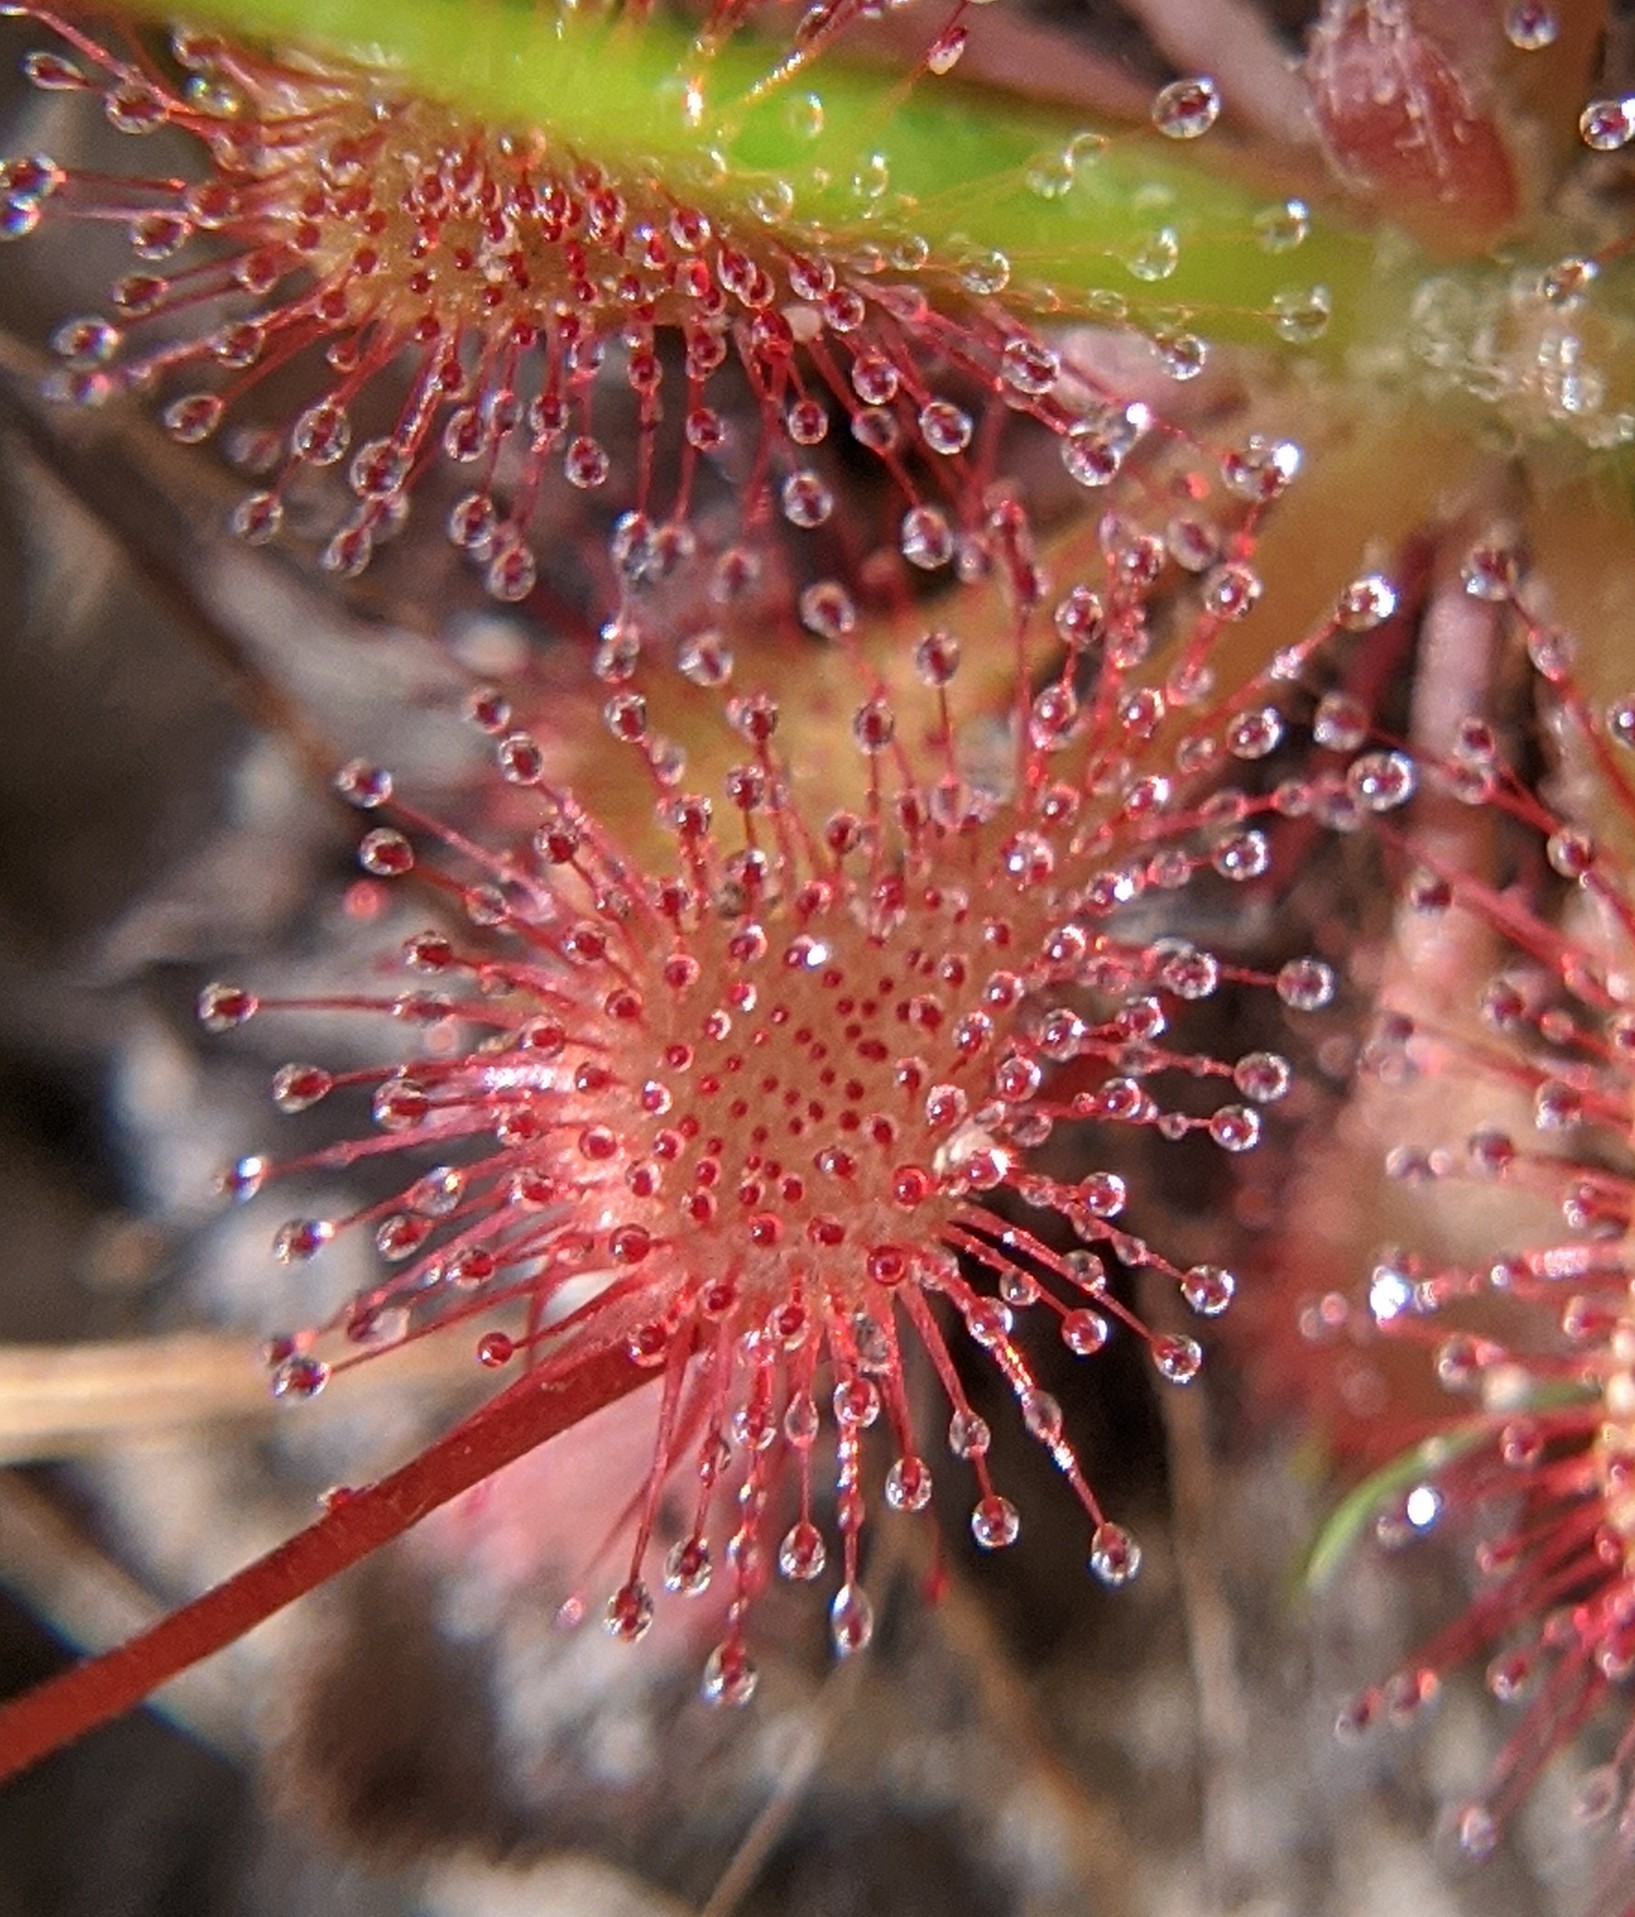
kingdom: Plantae
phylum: Tracheophyta
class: Magnoliopsida
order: Caryophyllales
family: Droseraceae
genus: Drosera
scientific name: Drosera capillaris
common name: Pink sundew
